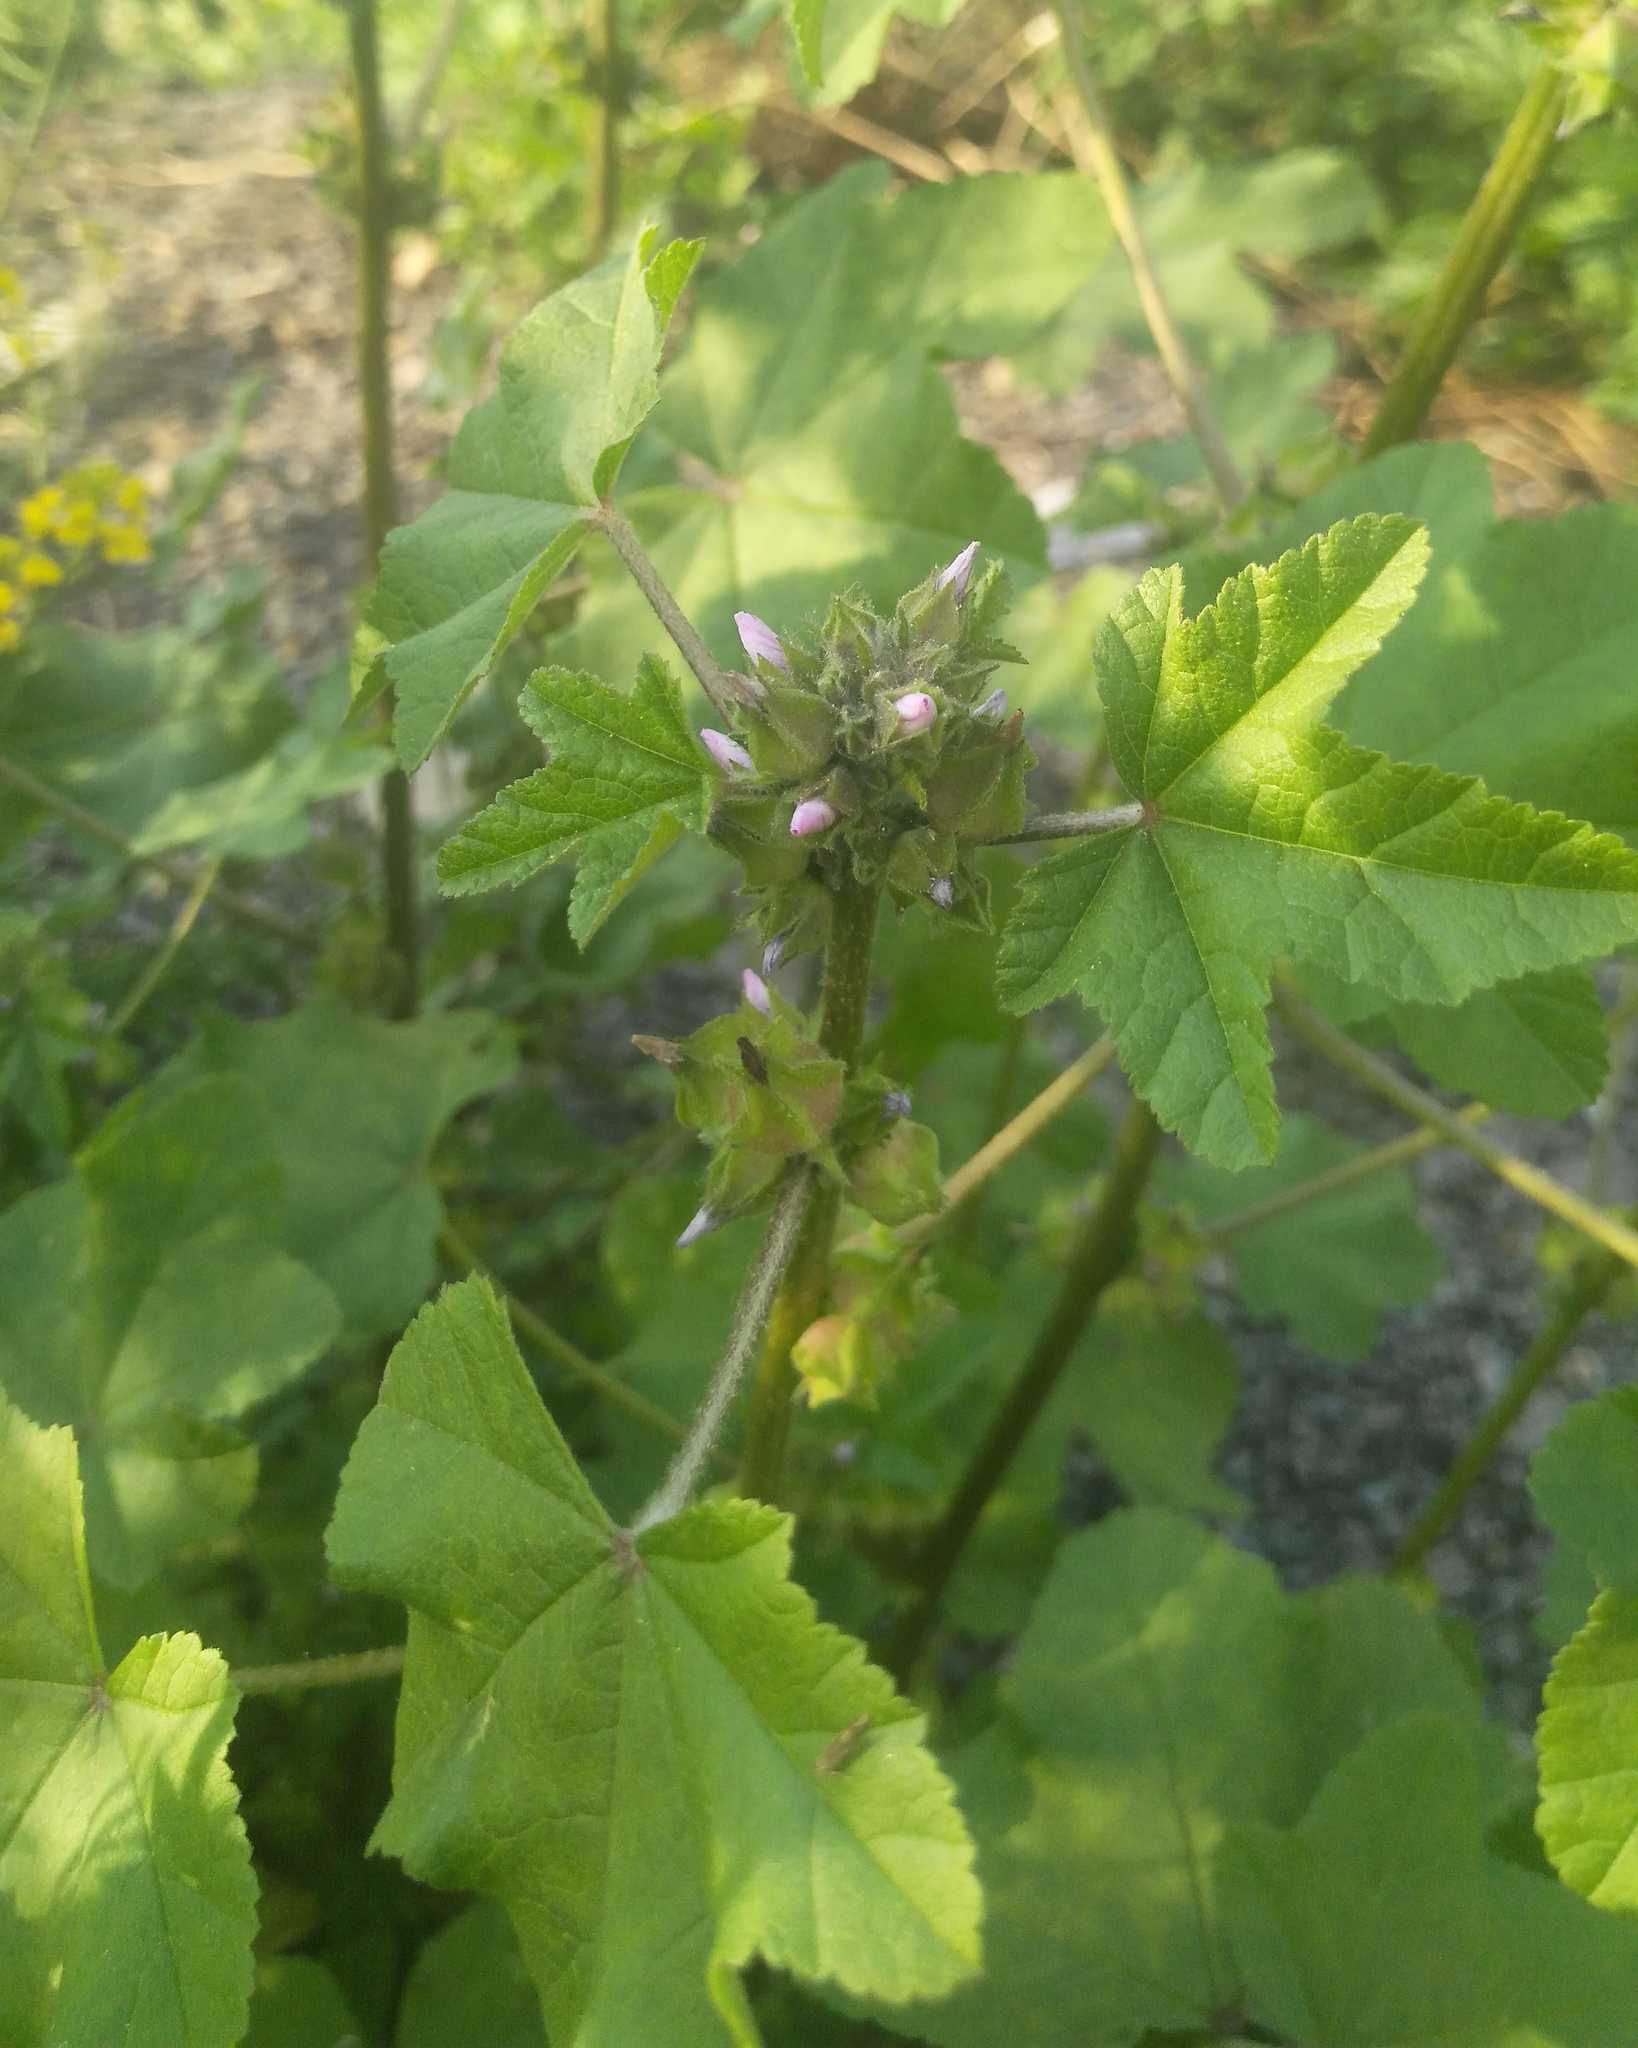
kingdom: Plantae
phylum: Tracheophyta
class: Magnoliopsida
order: Malvales
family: Malvaceae
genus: Malva
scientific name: Malva verticillata
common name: Chinese mallow
